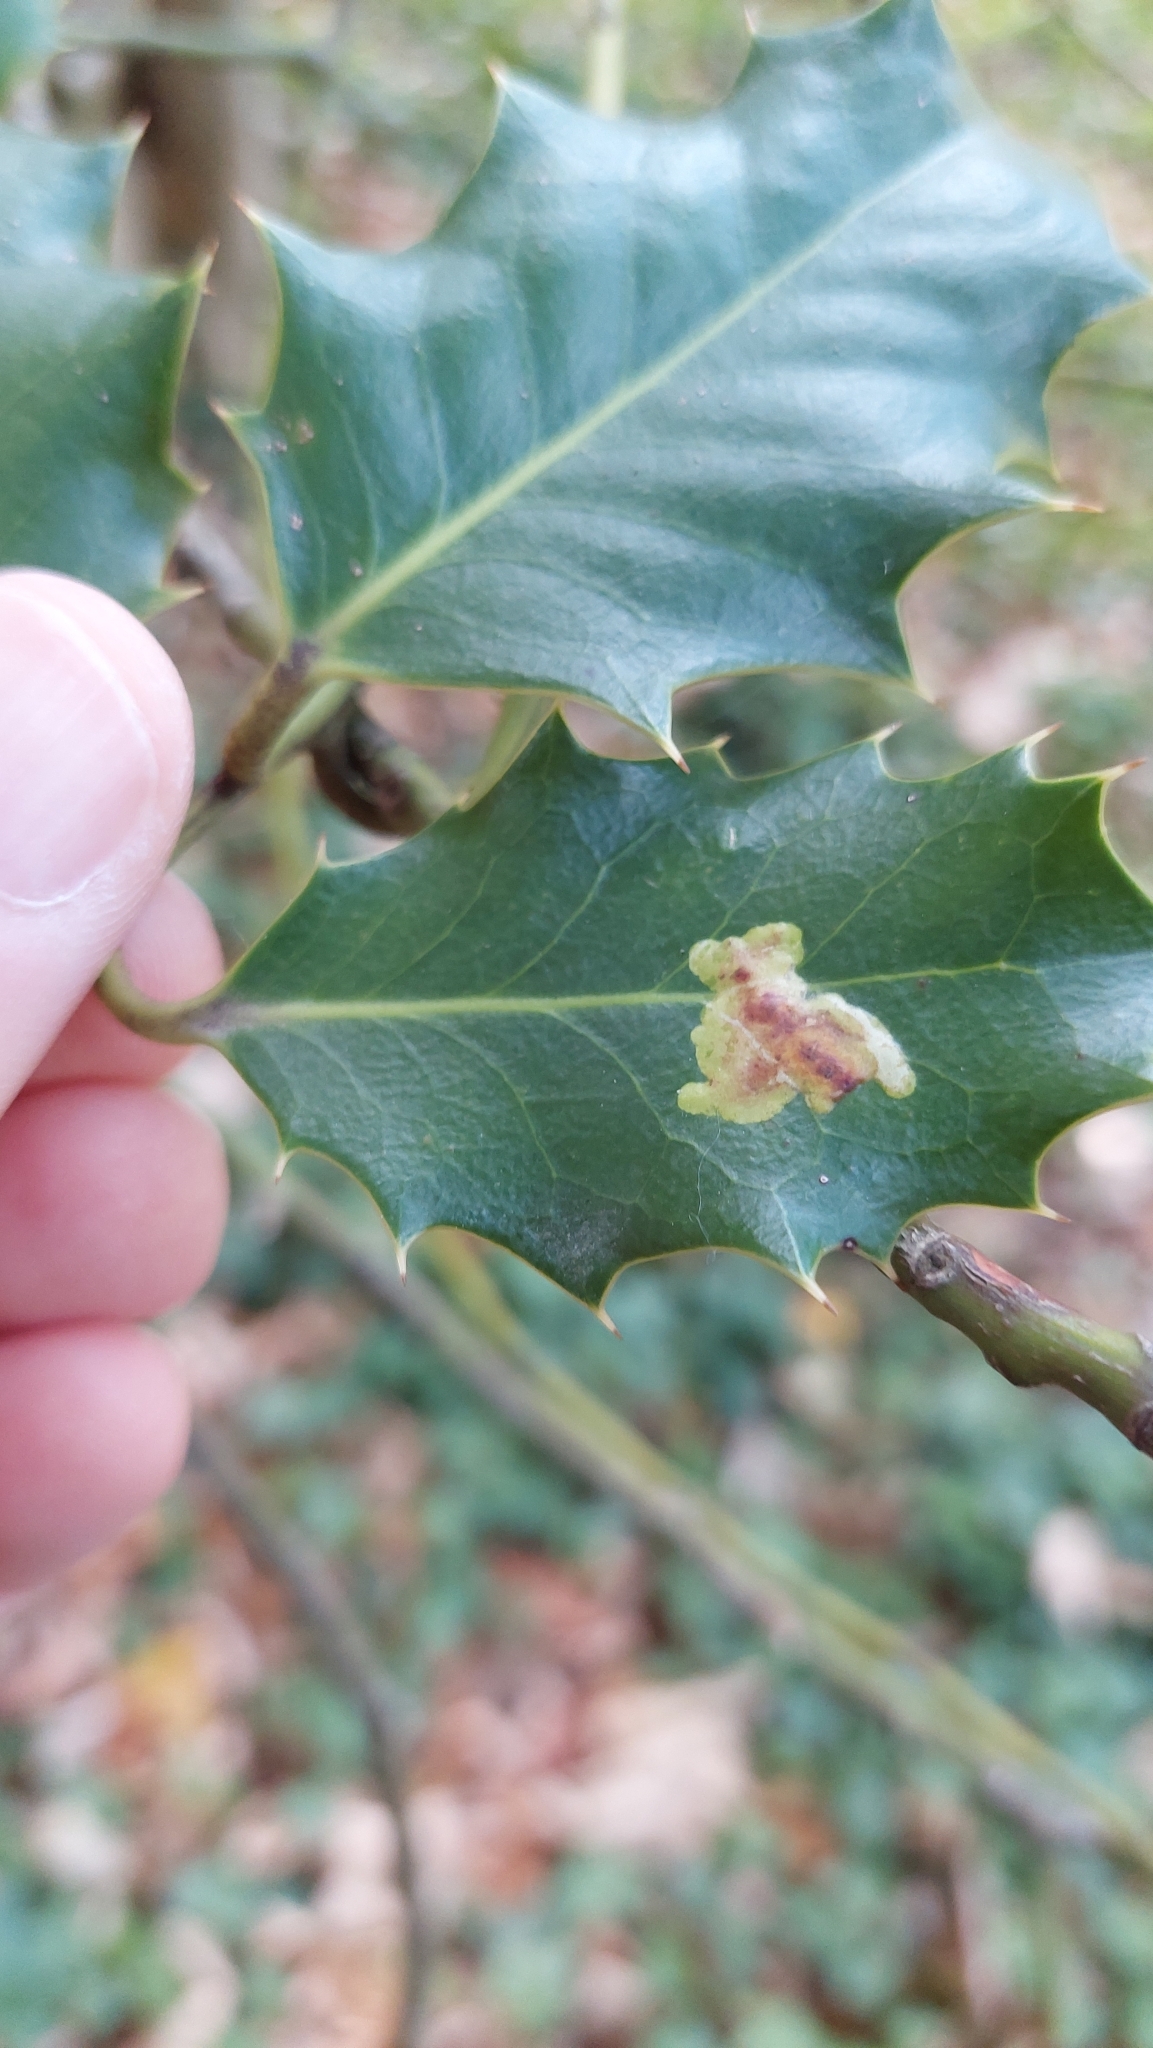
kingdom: Animalia
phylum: Arthropoda
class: Insecta
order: Diptera
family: Agromyzidae
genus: Phytomyza
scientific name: Phytomyza ilicis
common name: Holly leafminer
